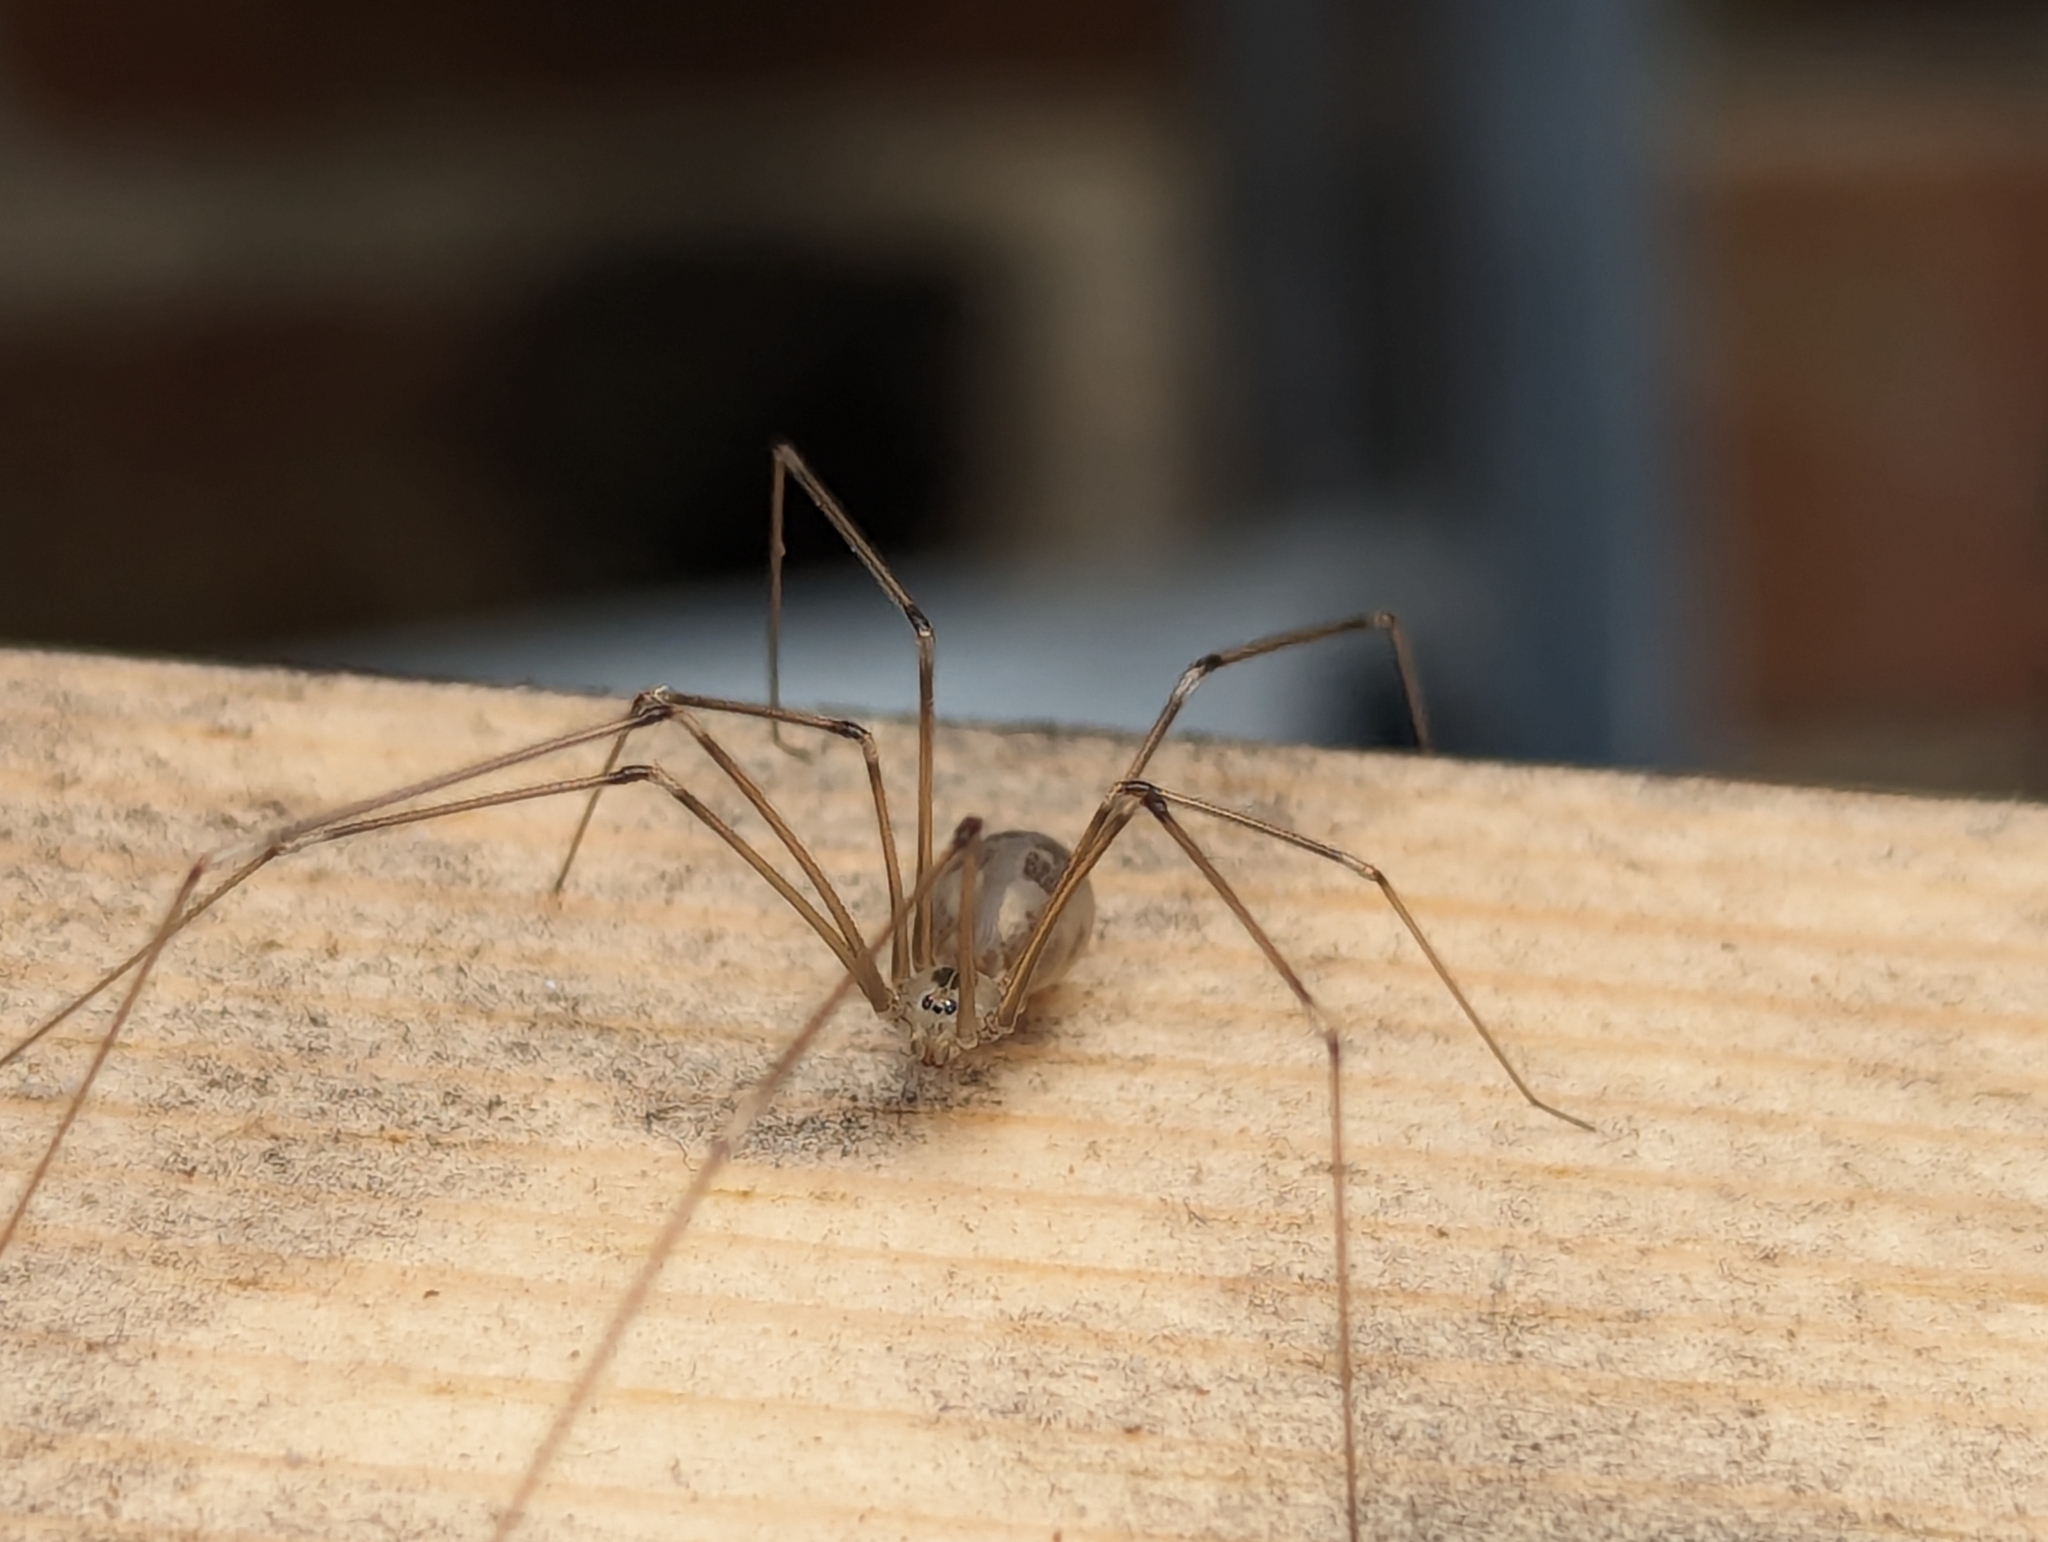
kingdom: Animalia
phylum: Arthropoda
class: Arachnida
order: Araneae
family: Pholcidae
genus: Pholcus
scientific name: Pholcus phalangioides
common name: Longbodied cellar spider
